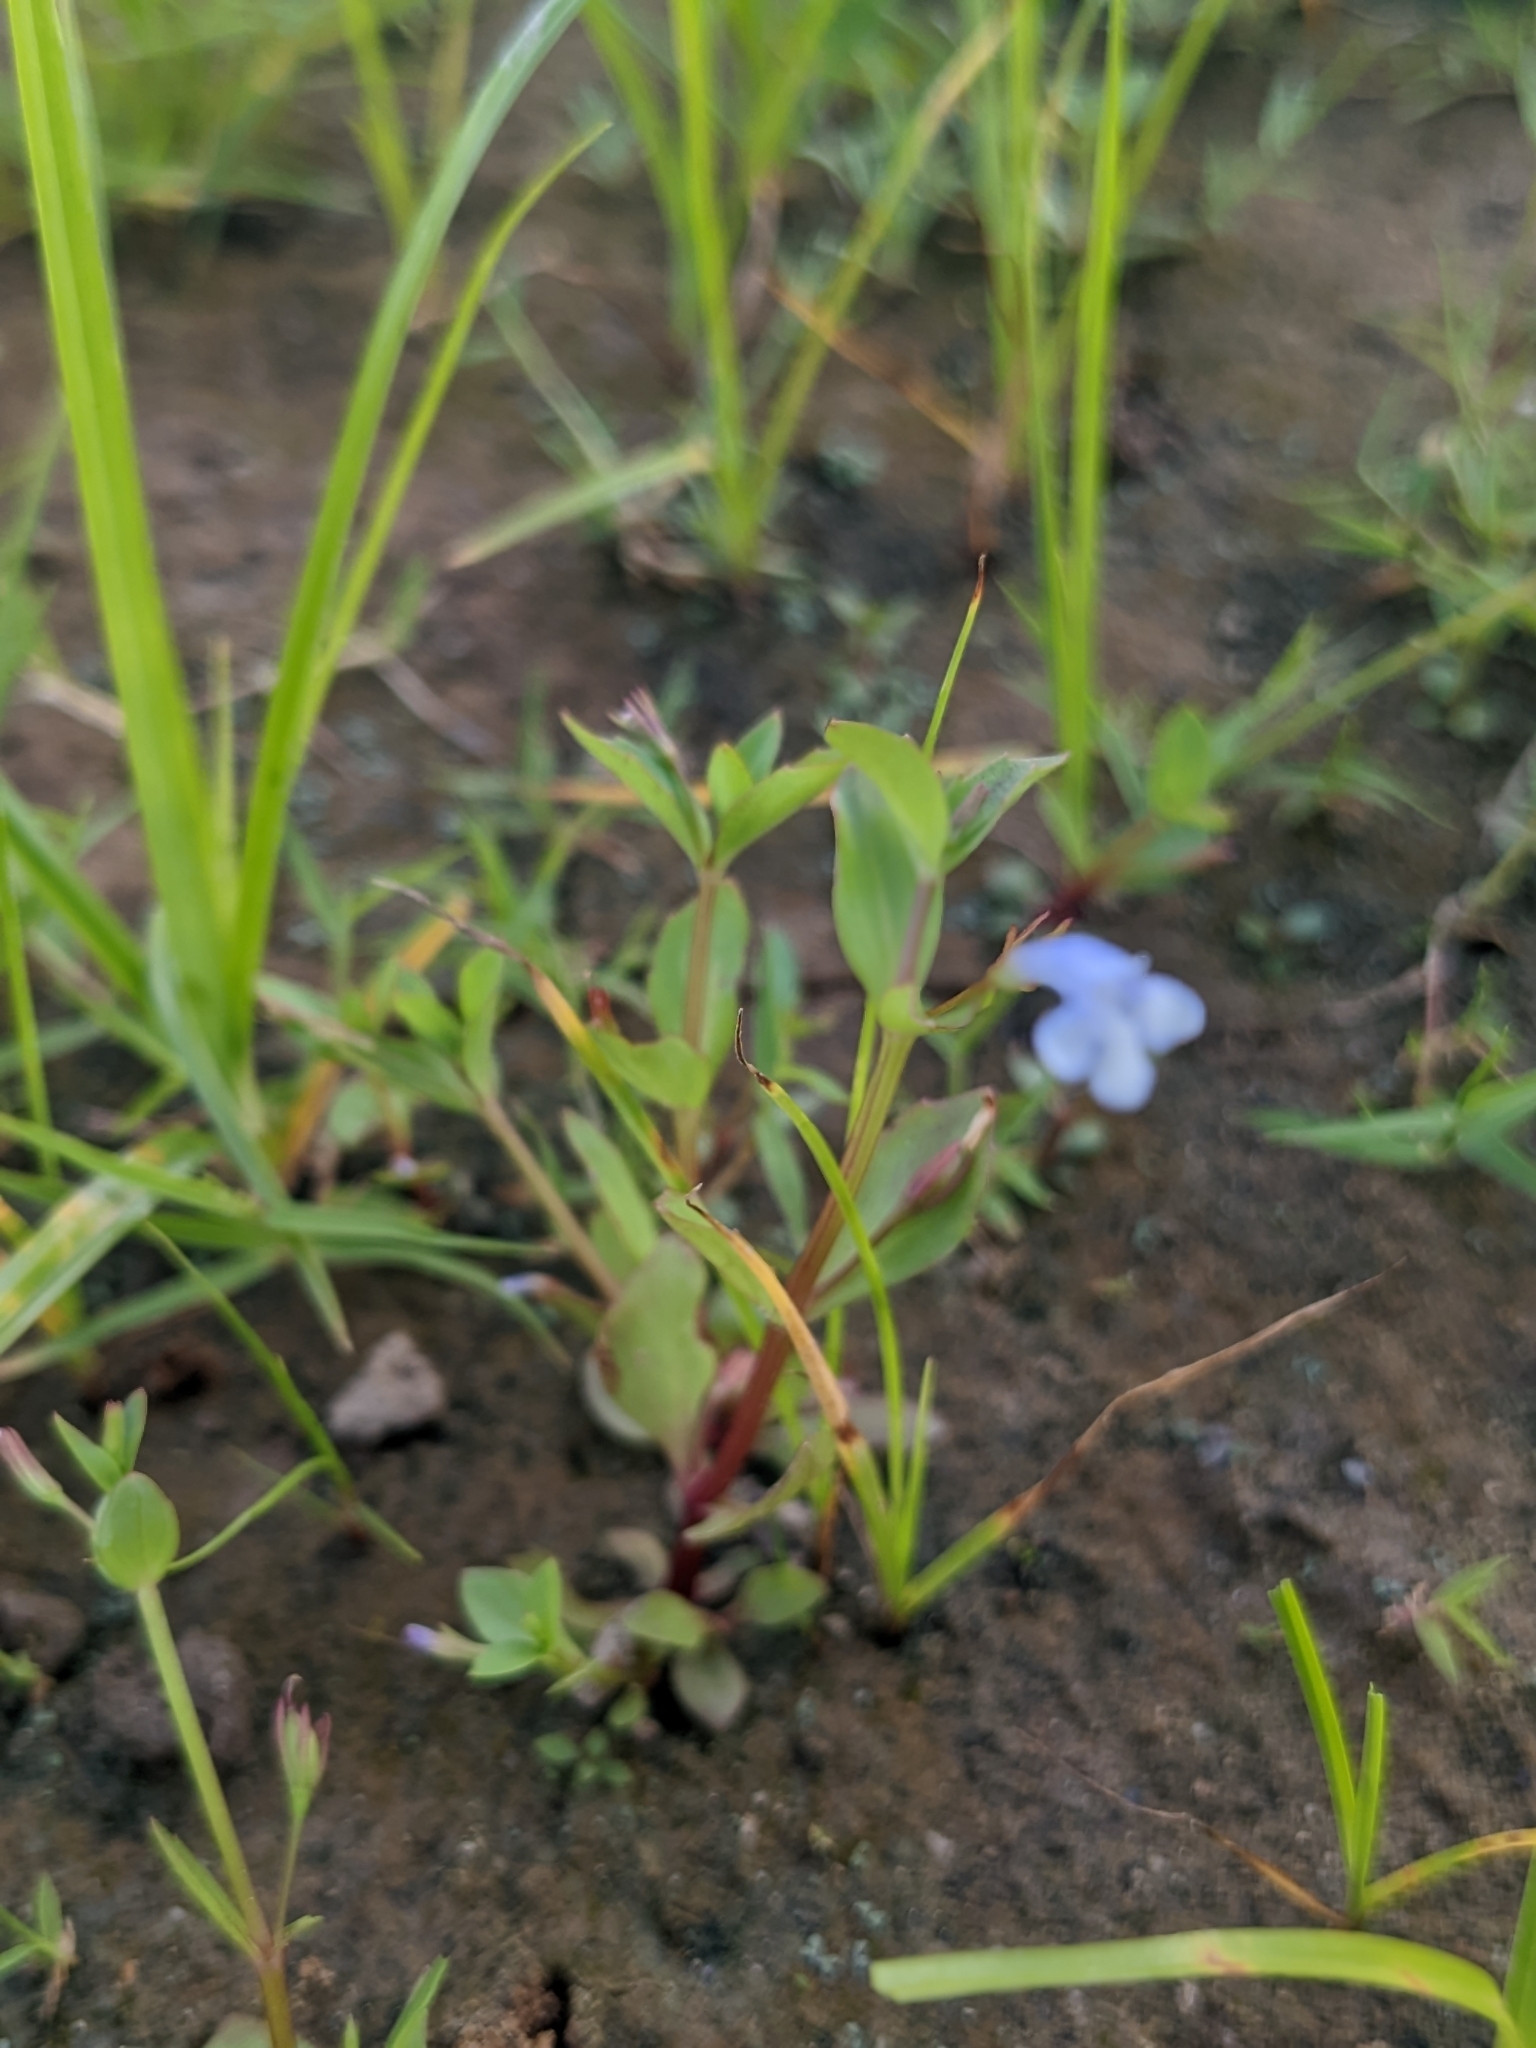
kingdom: Plantae
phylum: Tracheophyta
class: Magnoliopsida
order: Lamiales
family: Linderniaceae
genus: Lindernia
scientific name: Lindernia dubia
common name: Annual false pimpernel
